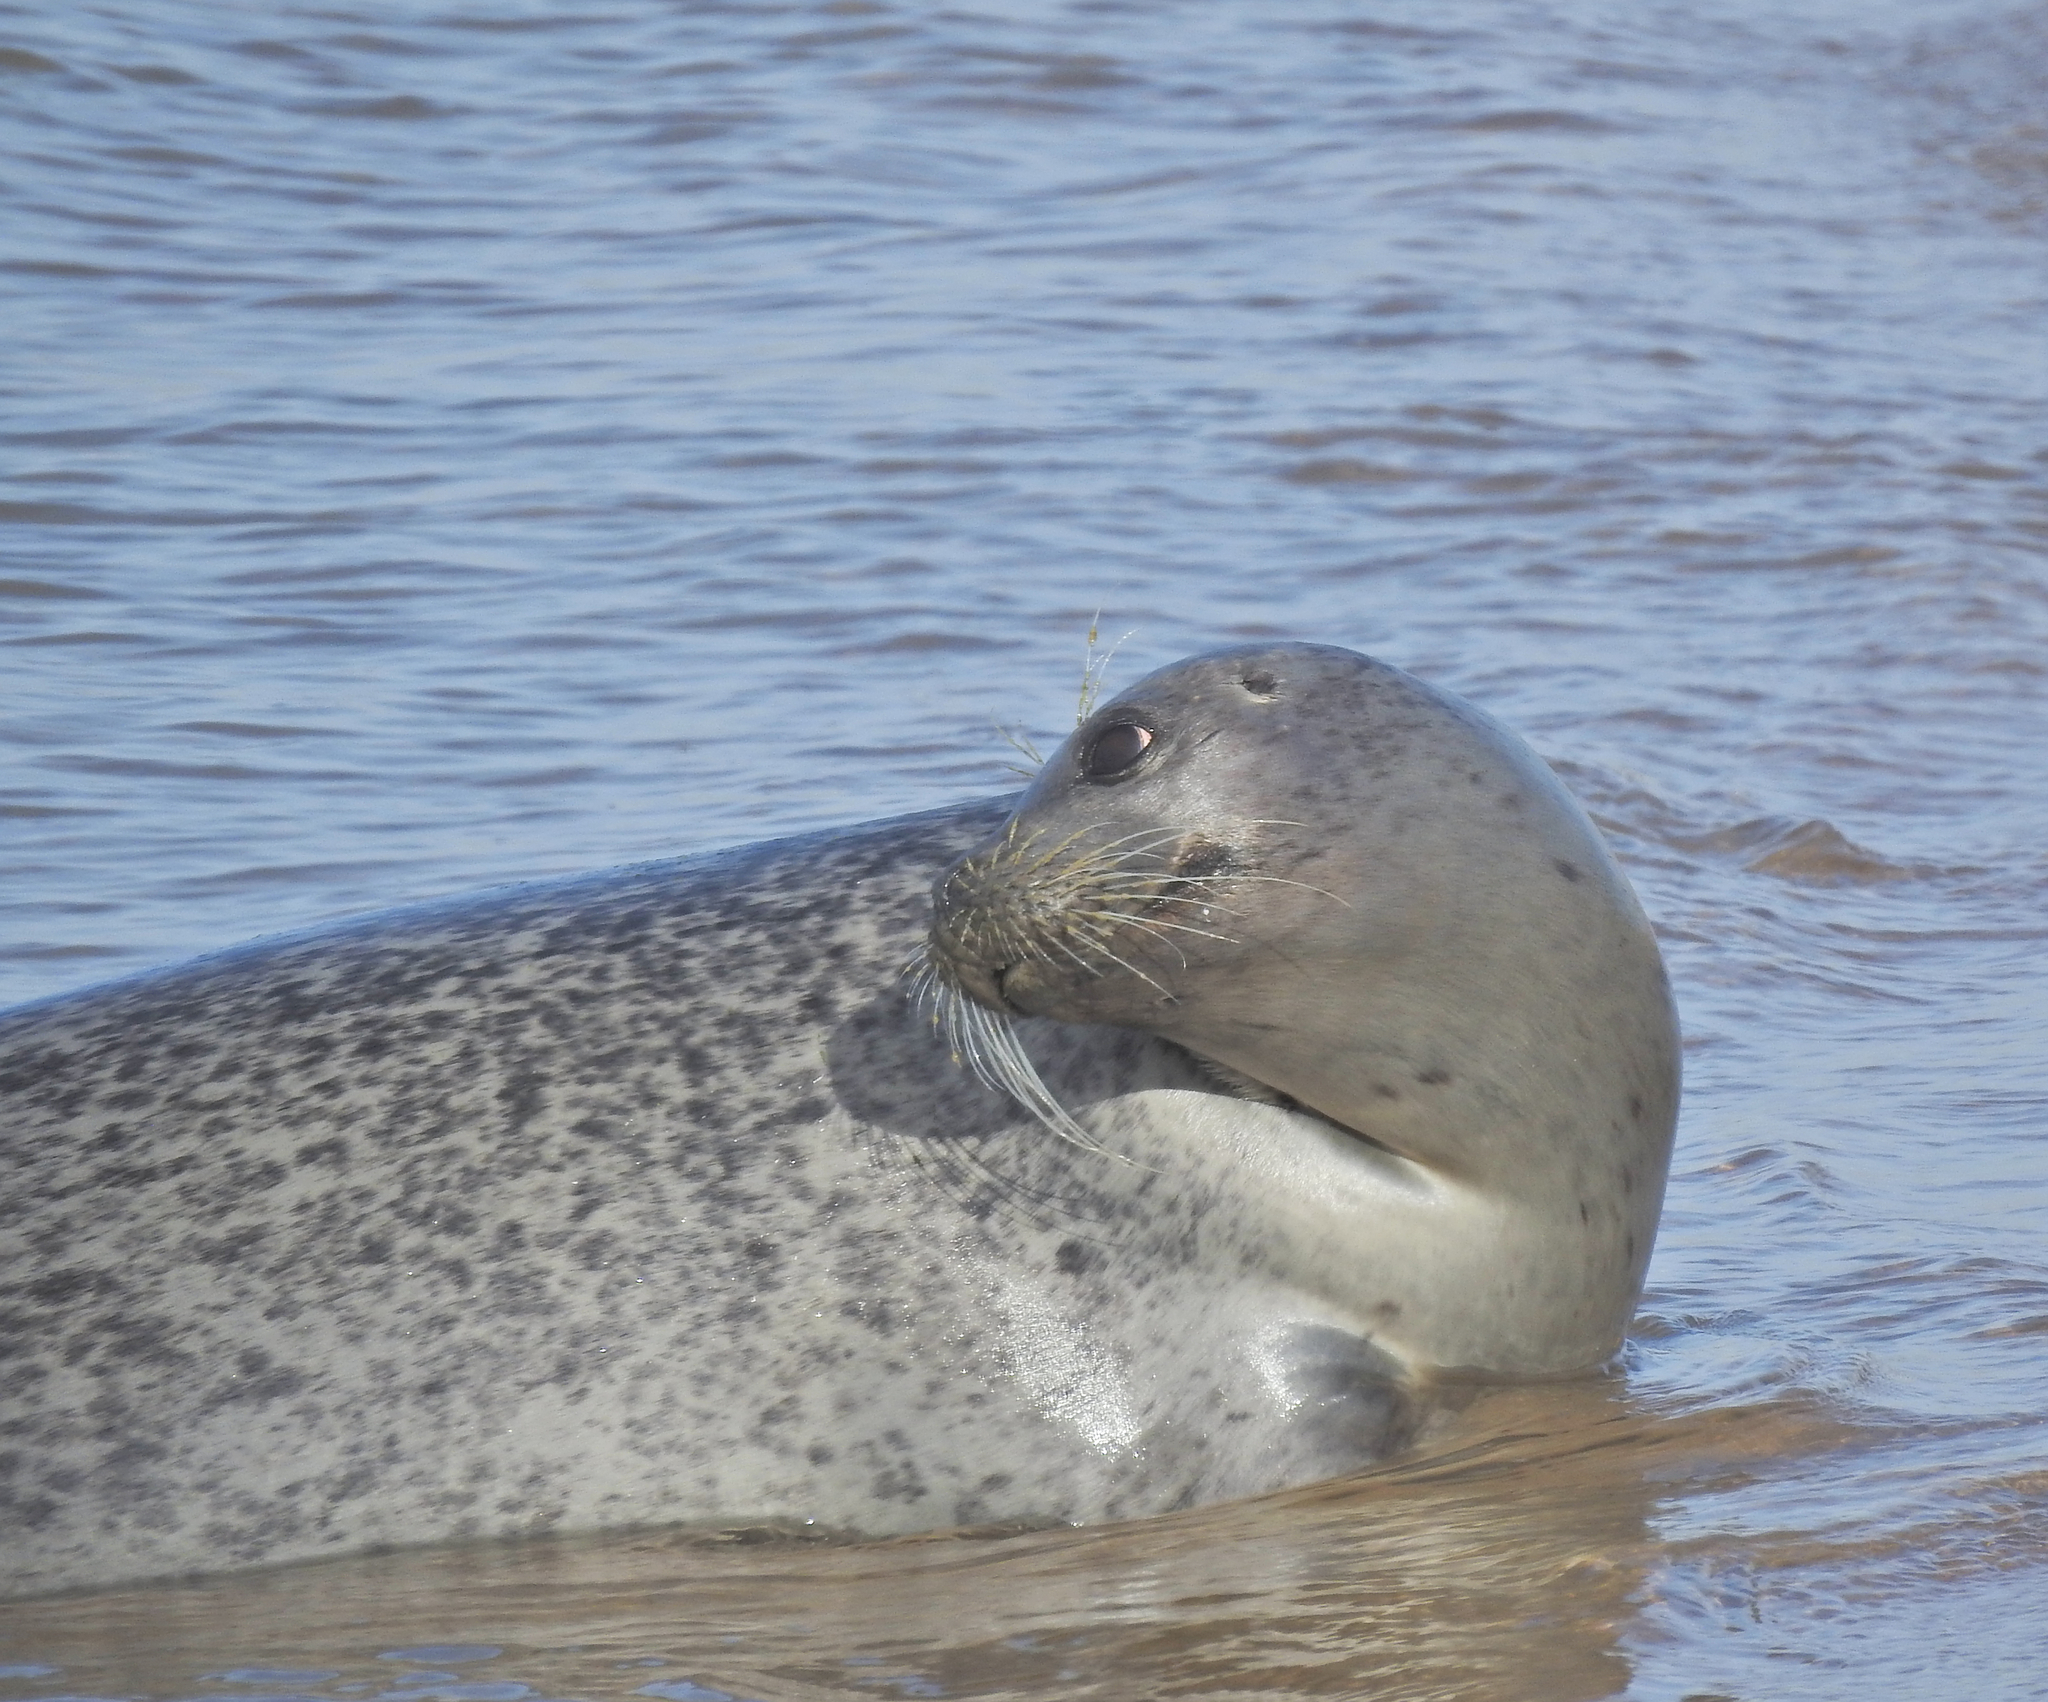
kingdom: Animalia
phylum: Chordata
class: Mammalia
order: Carnivora
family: Phocidae
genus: Phoca
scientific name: Phoca vitulina
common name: Harbor seal
